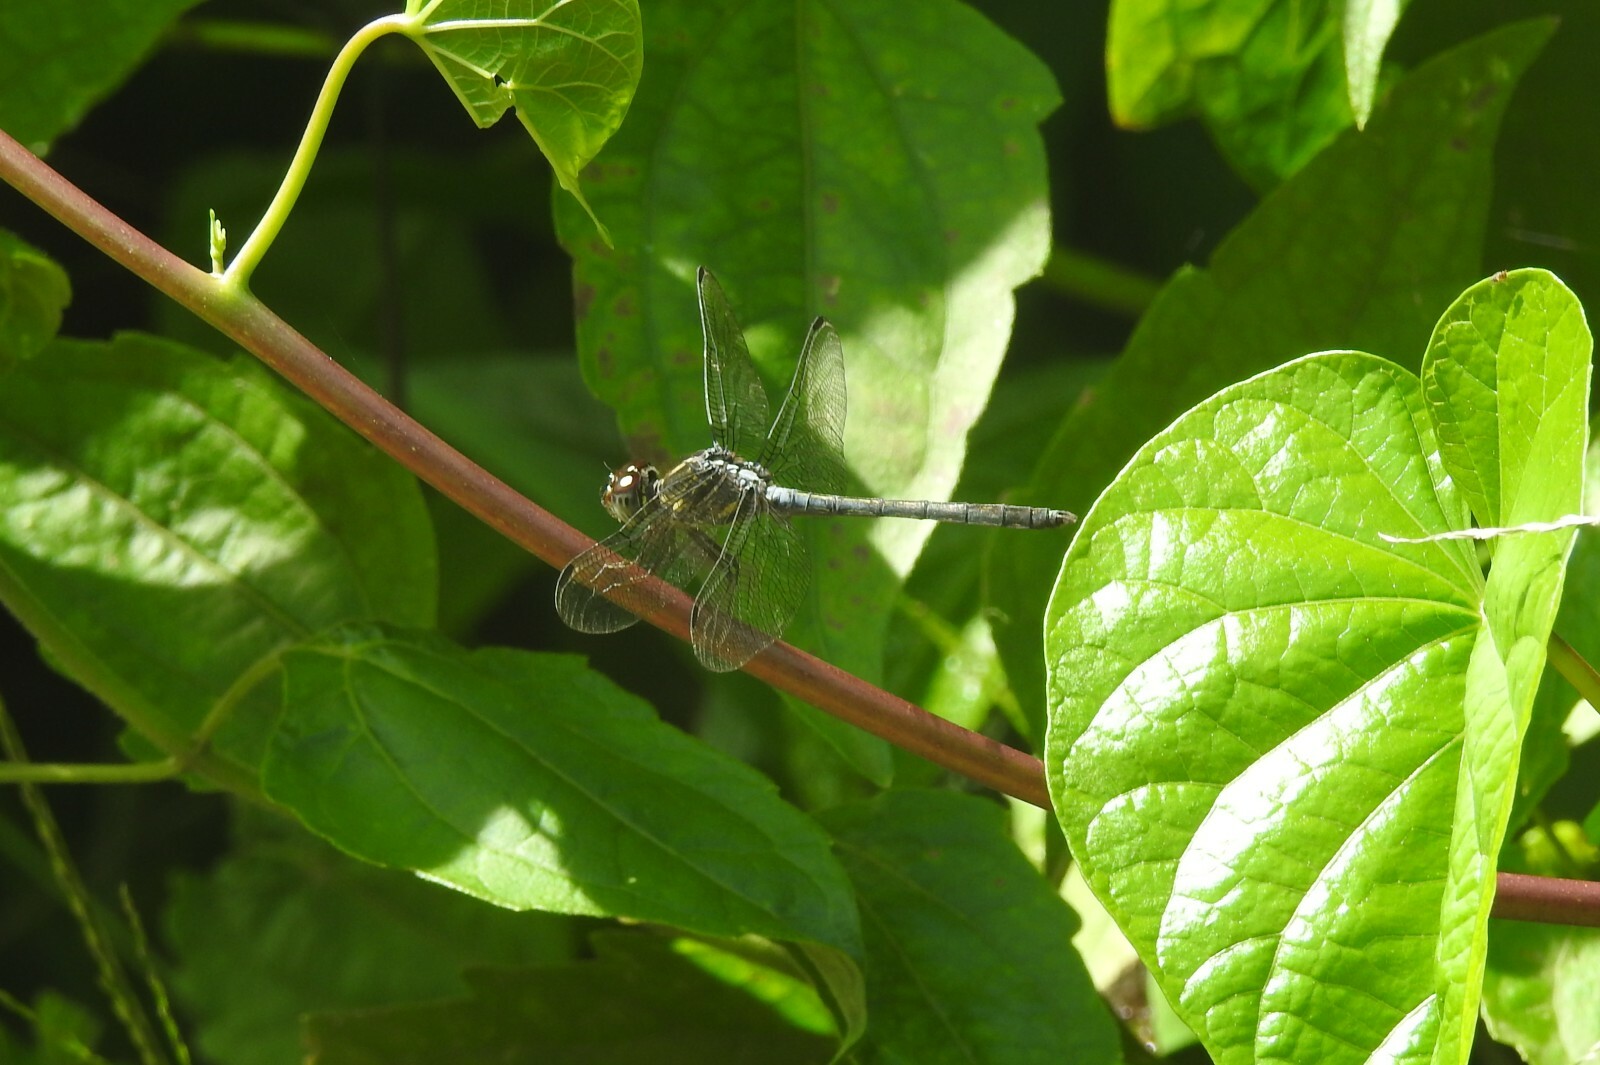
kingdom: Animalia
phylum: Arthropoda
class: Insecta
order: Odonata
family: Libellulidae
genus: Cratilla
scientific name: Cratilla lineata
